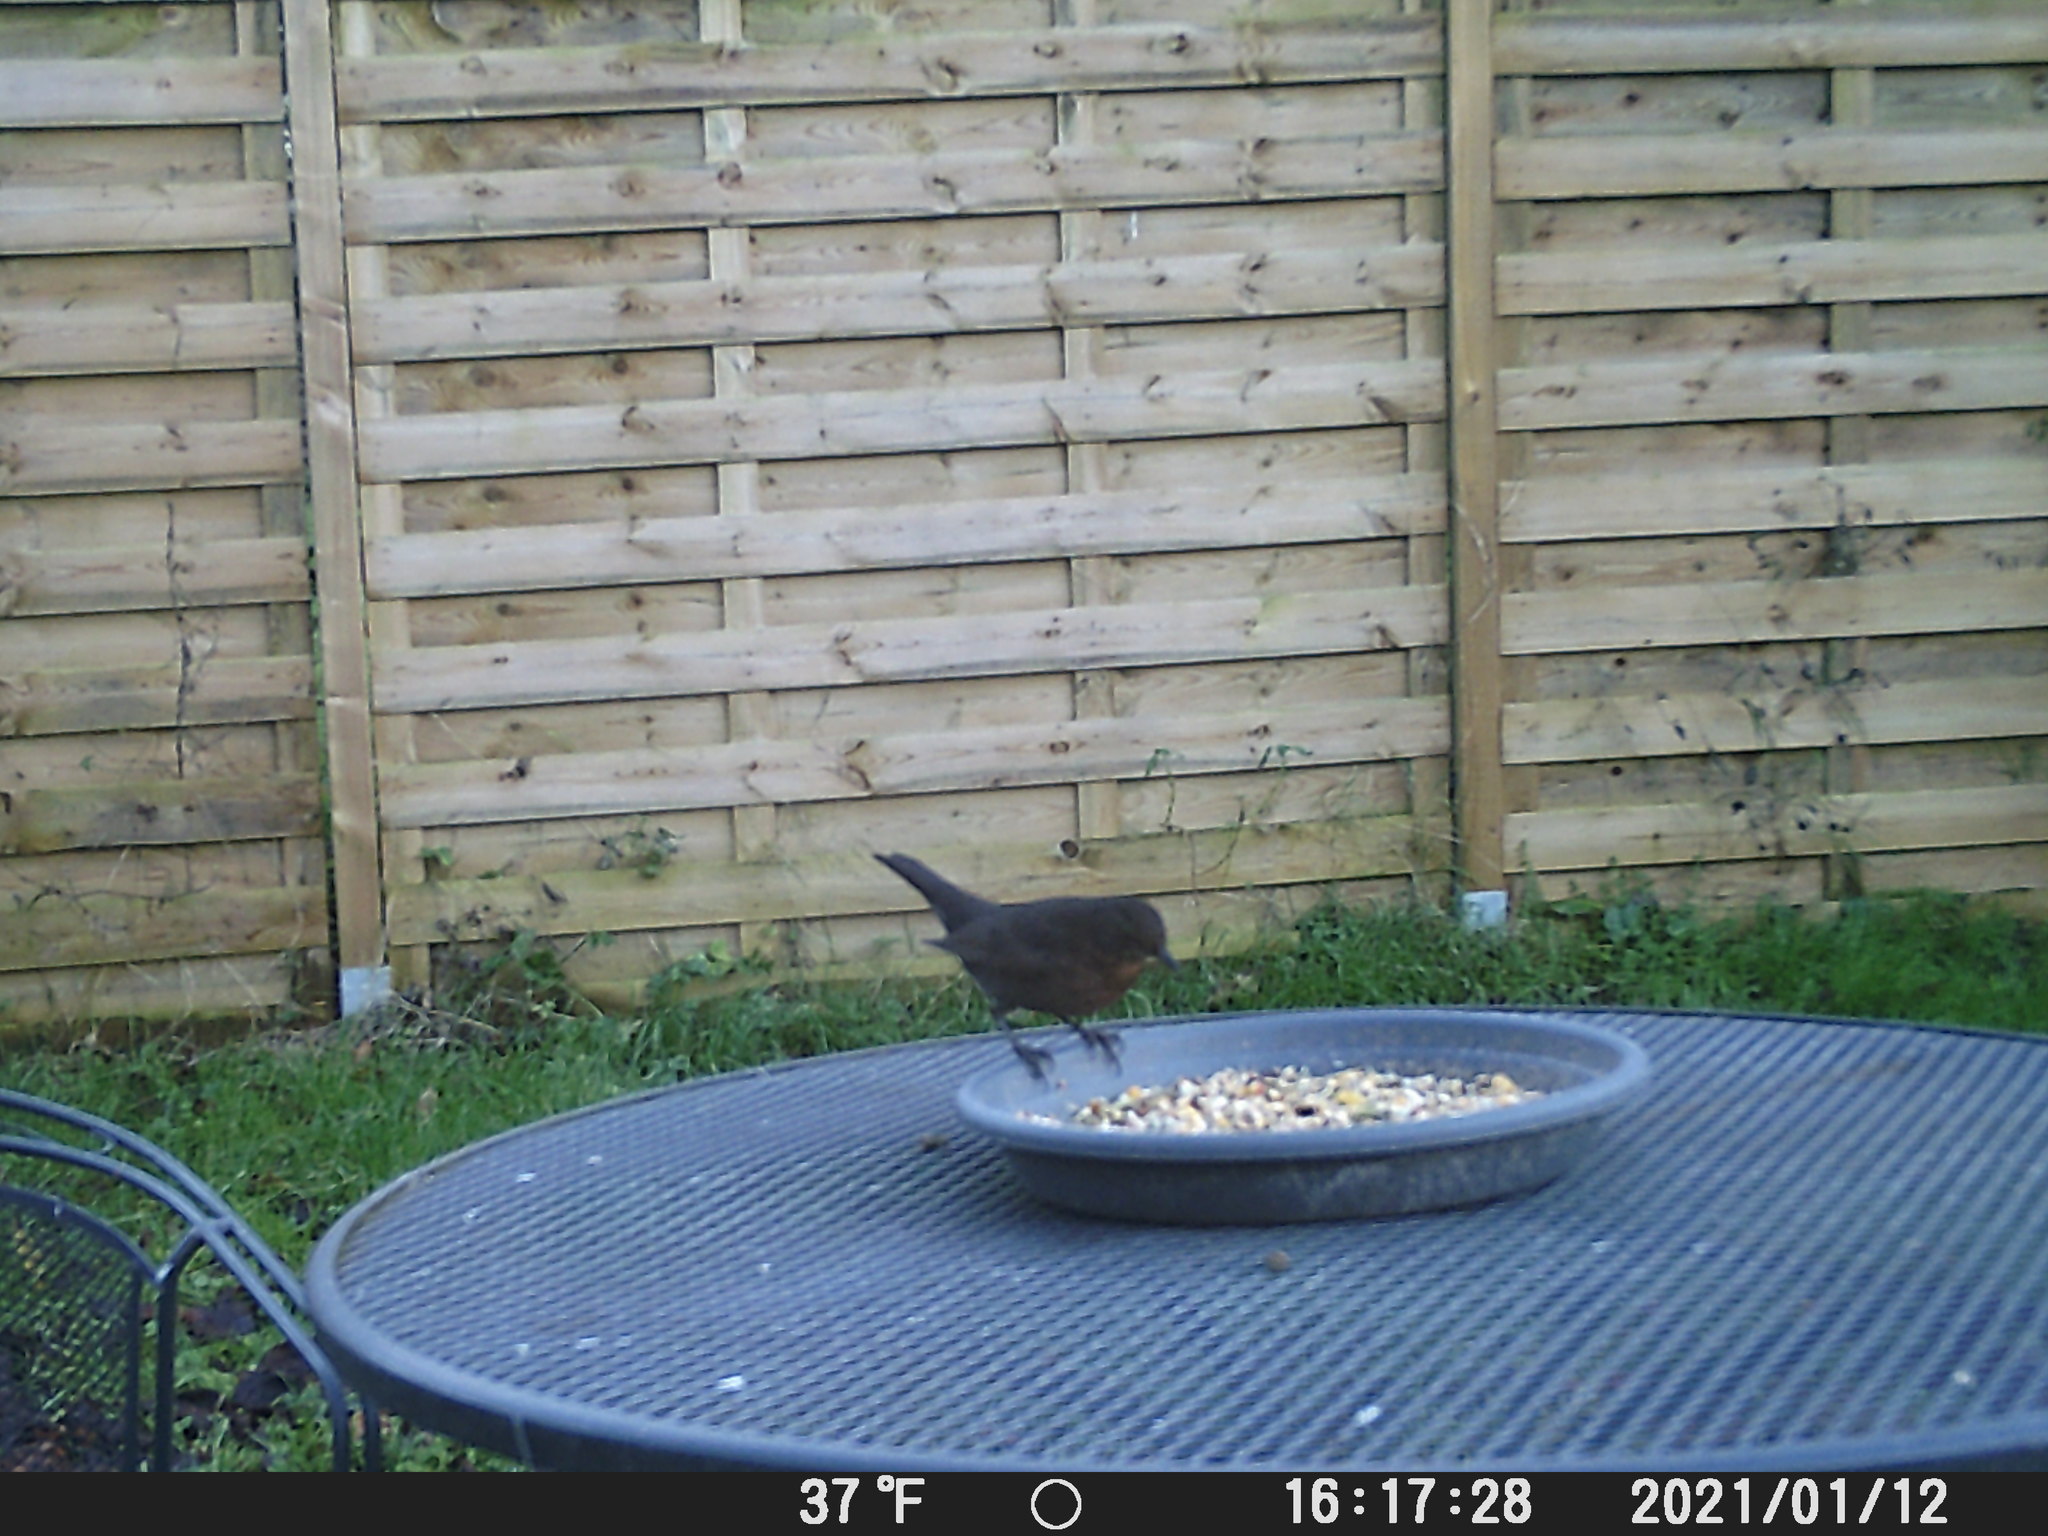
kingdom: Animalia
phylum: Chordata
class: Aves
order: Passeriformes
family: Turdidae
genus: Turdus
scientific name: Turdus merula
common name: Common blackbird
